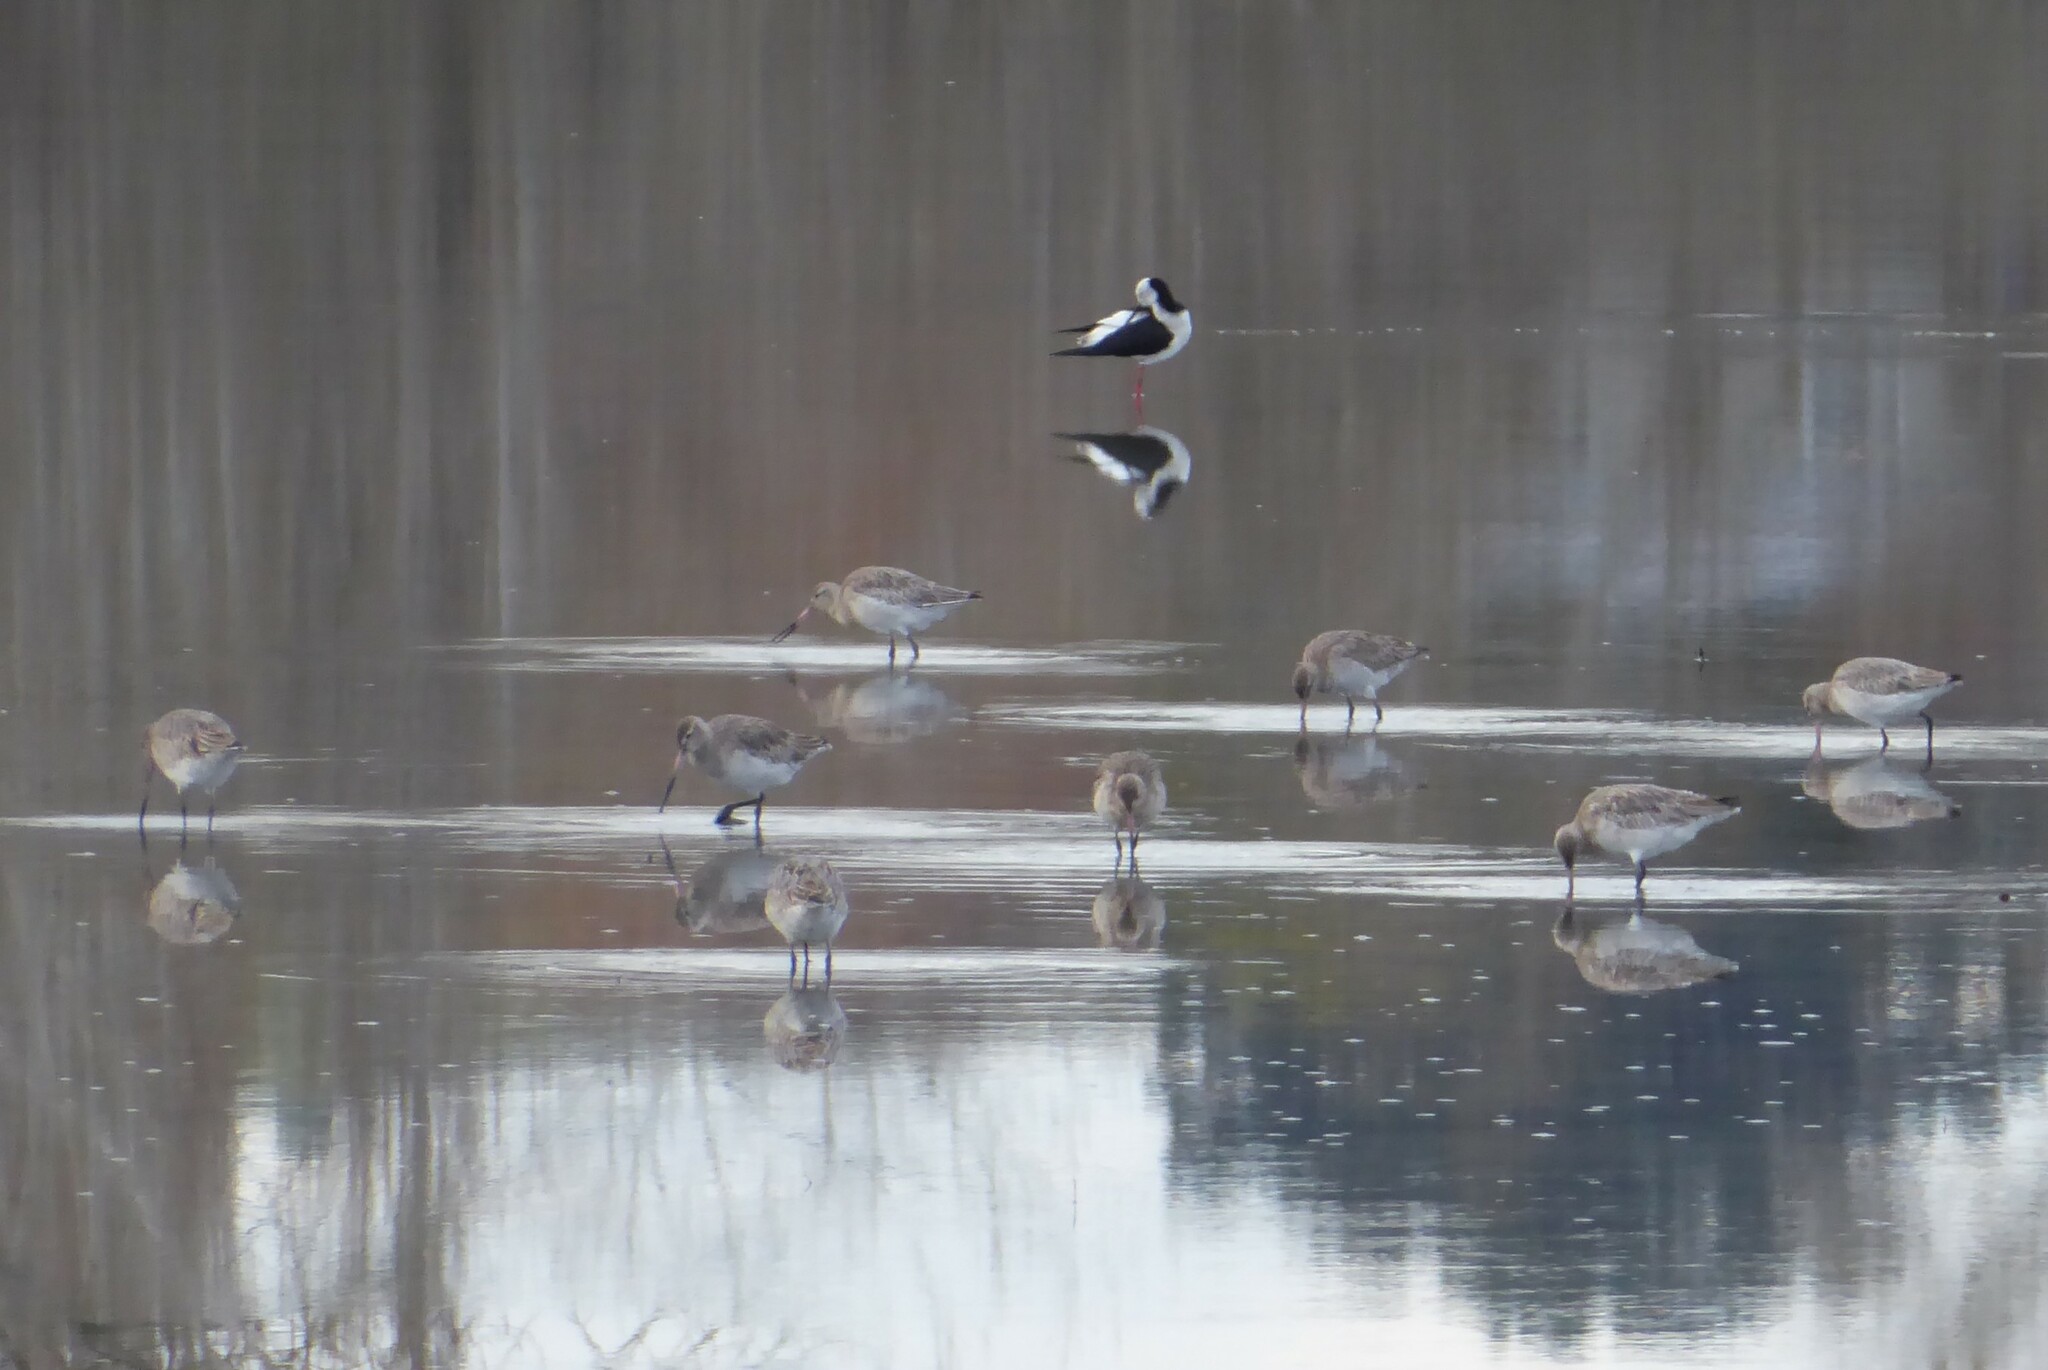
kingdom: Animalia
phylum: Chordata
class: Aves
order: Charadriiformes
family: Scolopacidae
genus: Limosa
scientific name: Limosa lapponica
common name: Bar-tailed godwit
